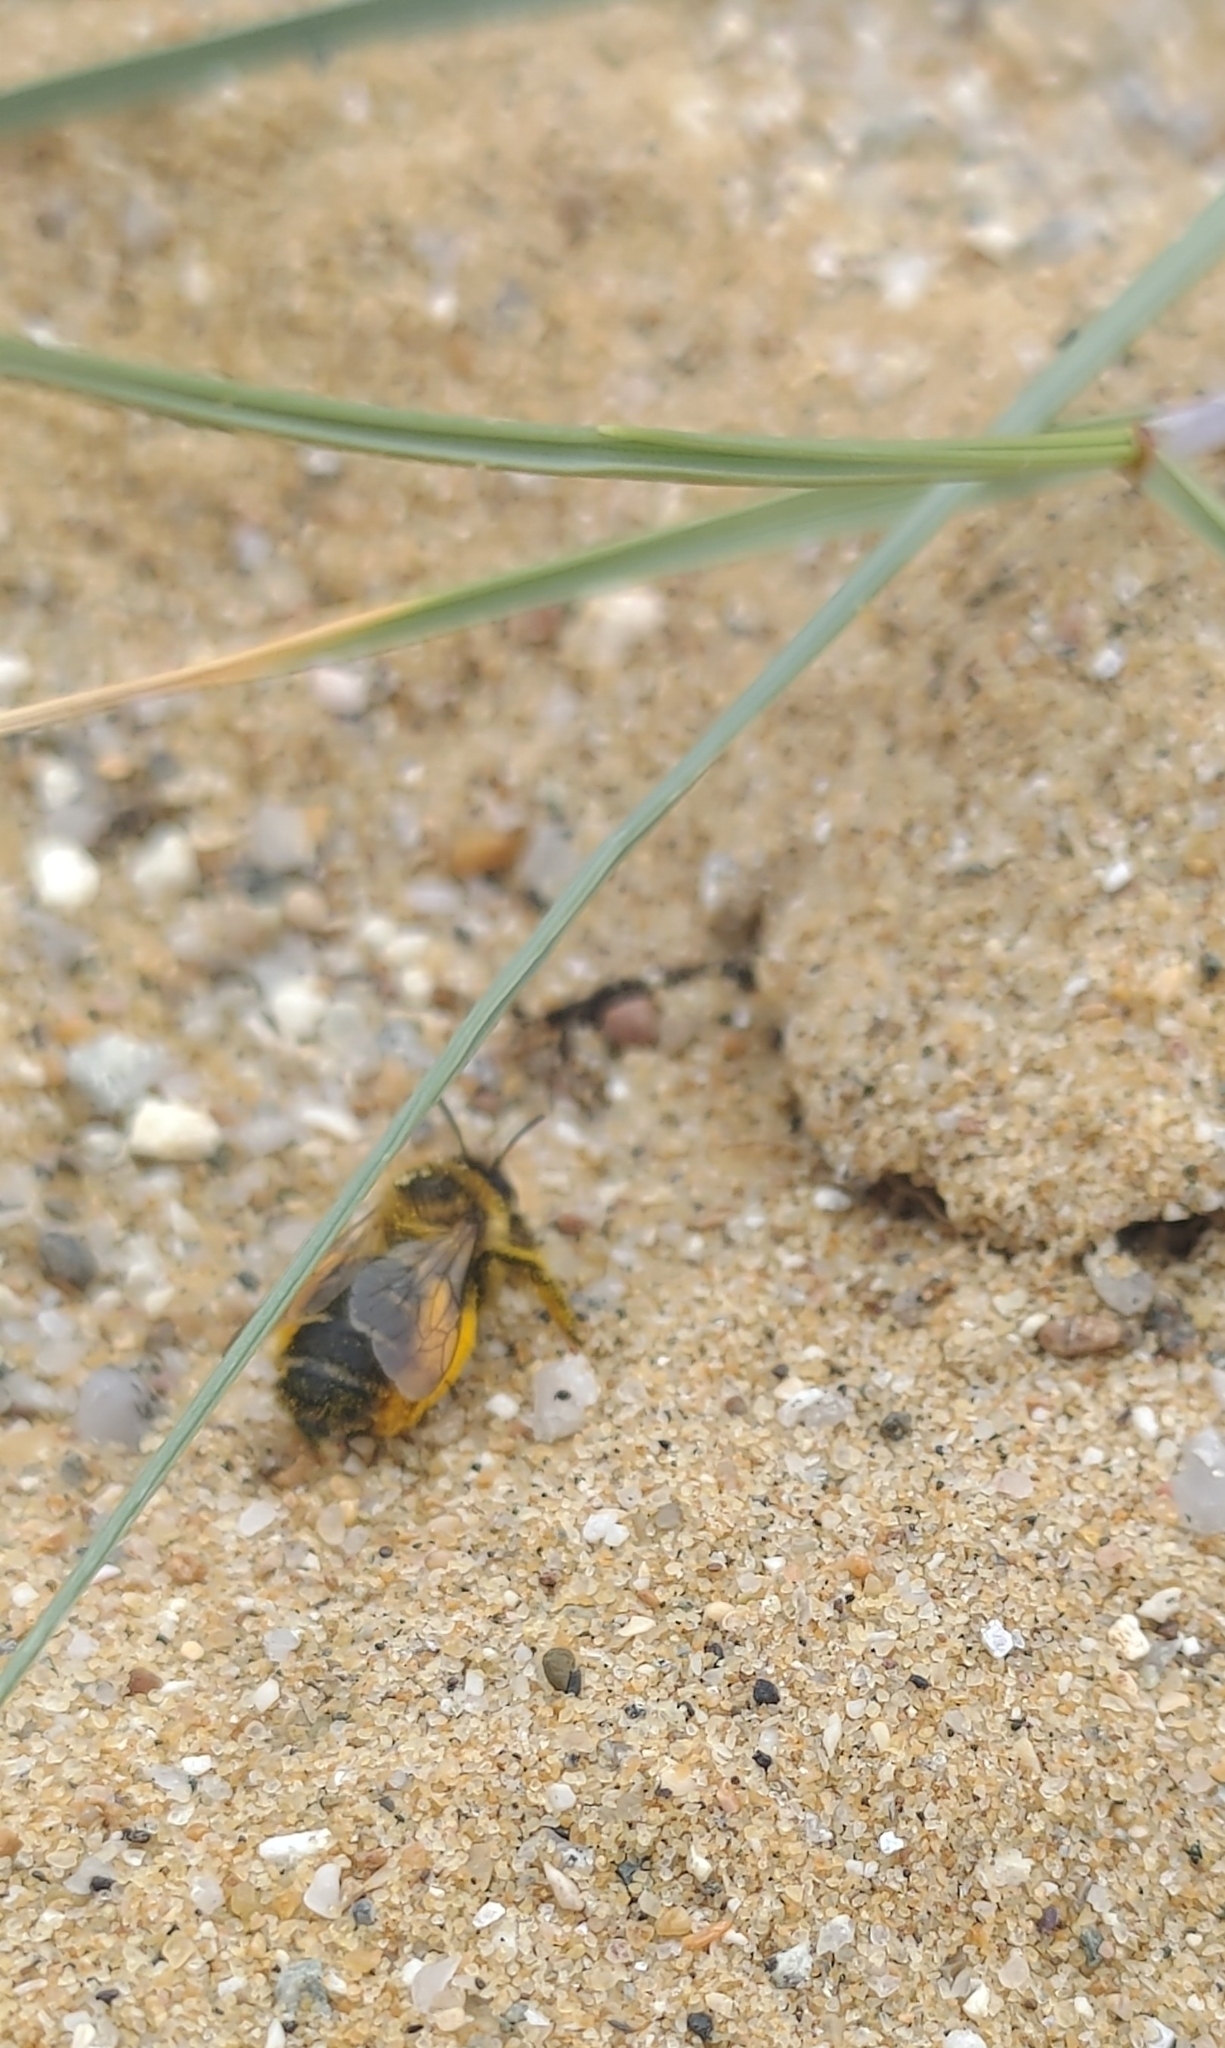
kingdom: Animalia
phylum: Arthropoda
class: Insecta
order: Hymenoptera
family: Melittidae
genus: Dasypoda
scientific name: Dasypoda hirtipes
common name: Pantaloon bee
